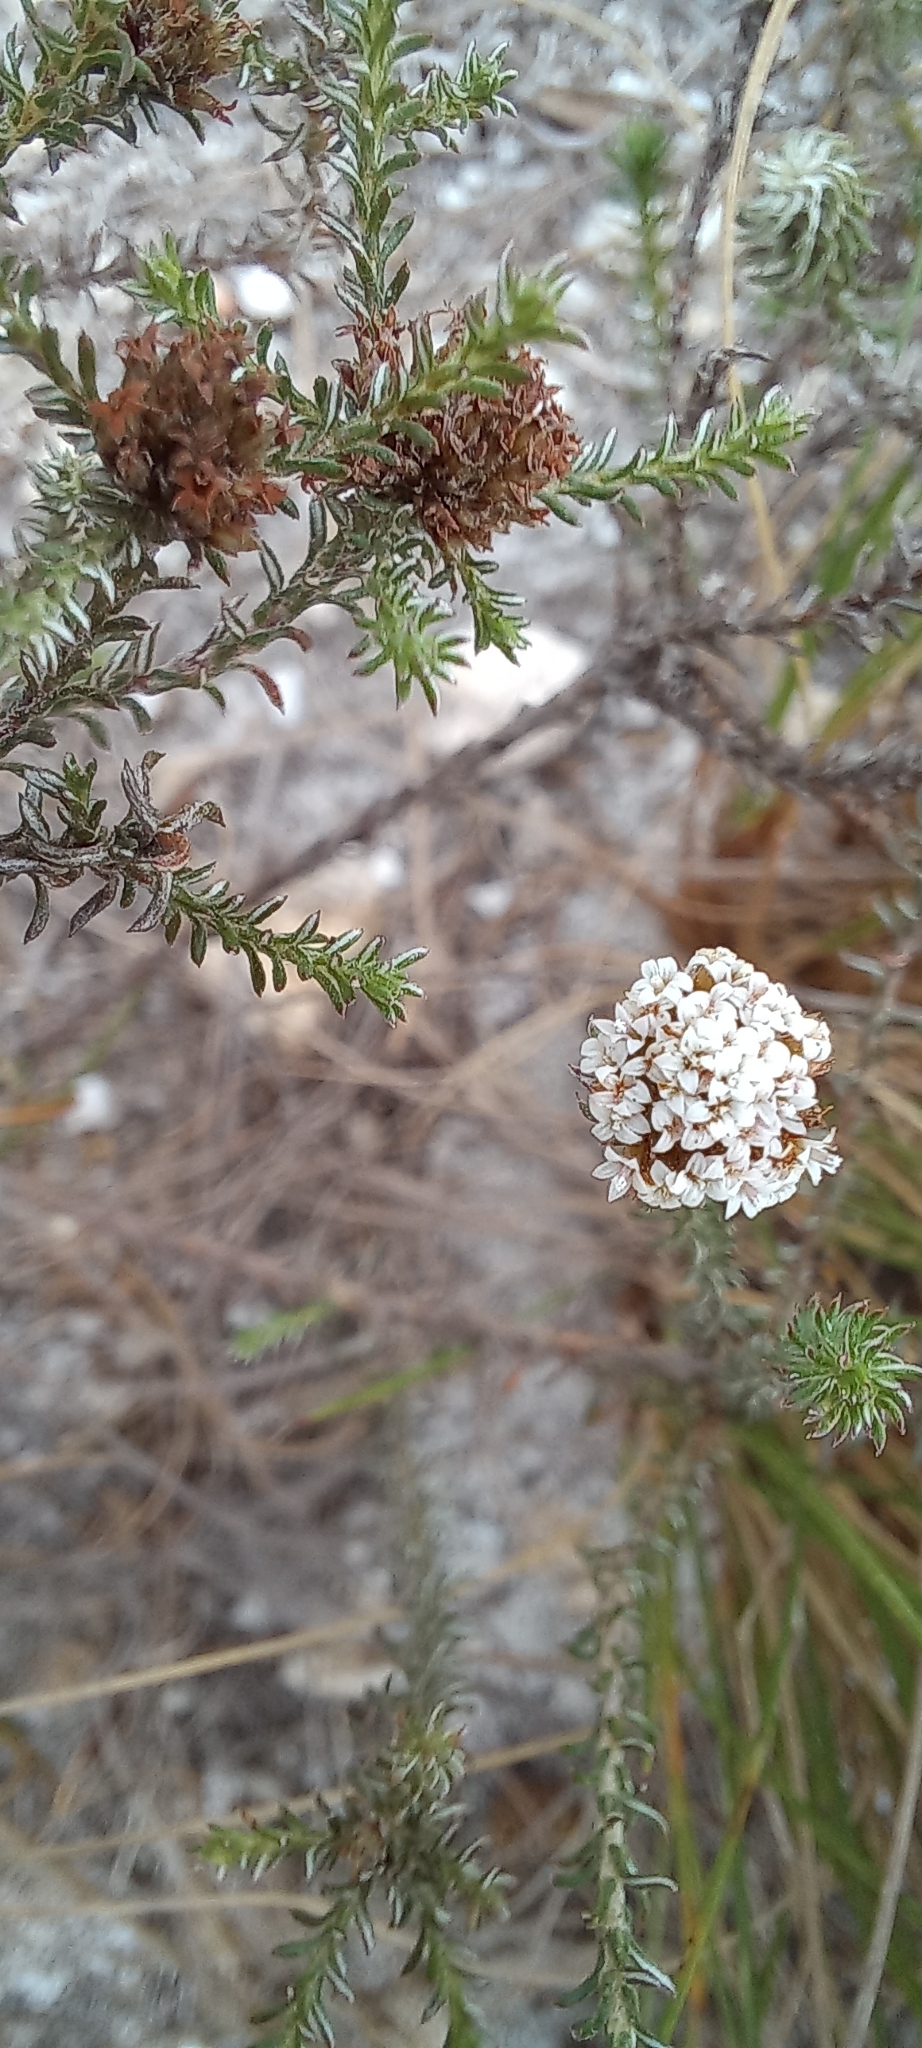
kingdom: Plantae
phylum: Tracheophyta
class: Magnoliopsida
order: Asterales
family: Asteraceae
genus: Stoebe
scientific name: Stoebe capitata
